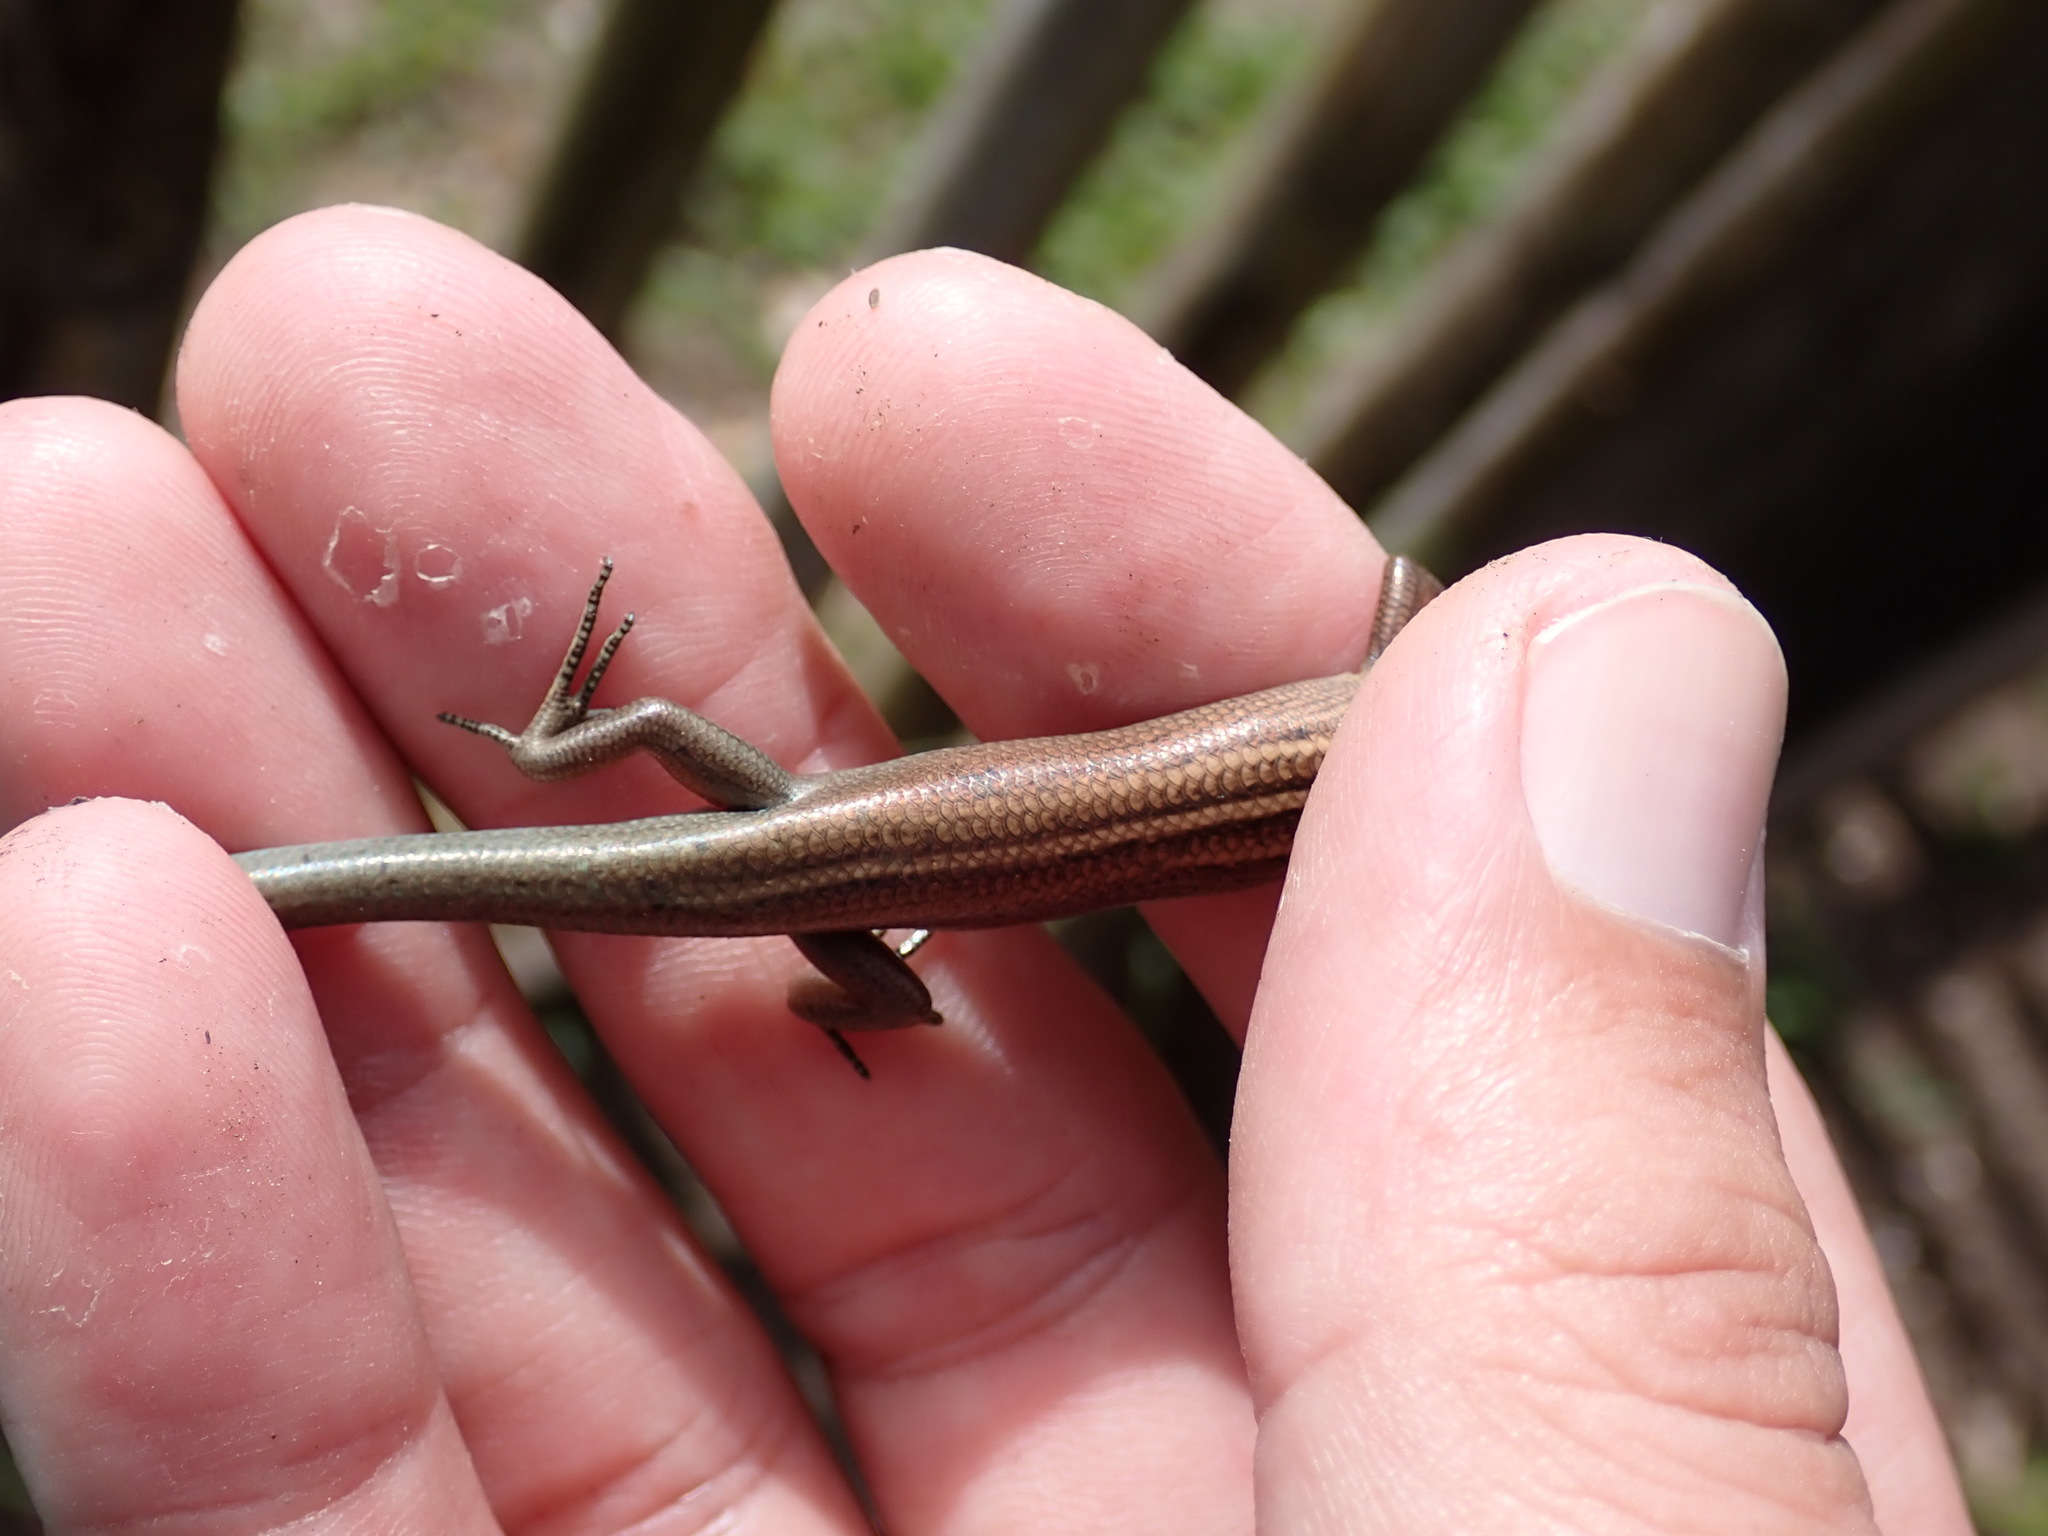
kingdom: Animalia
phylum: Chordata
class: Squamata
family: Scincidae
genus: Emoia
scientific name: Emoia cyanura
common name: Copper-tailed skink
